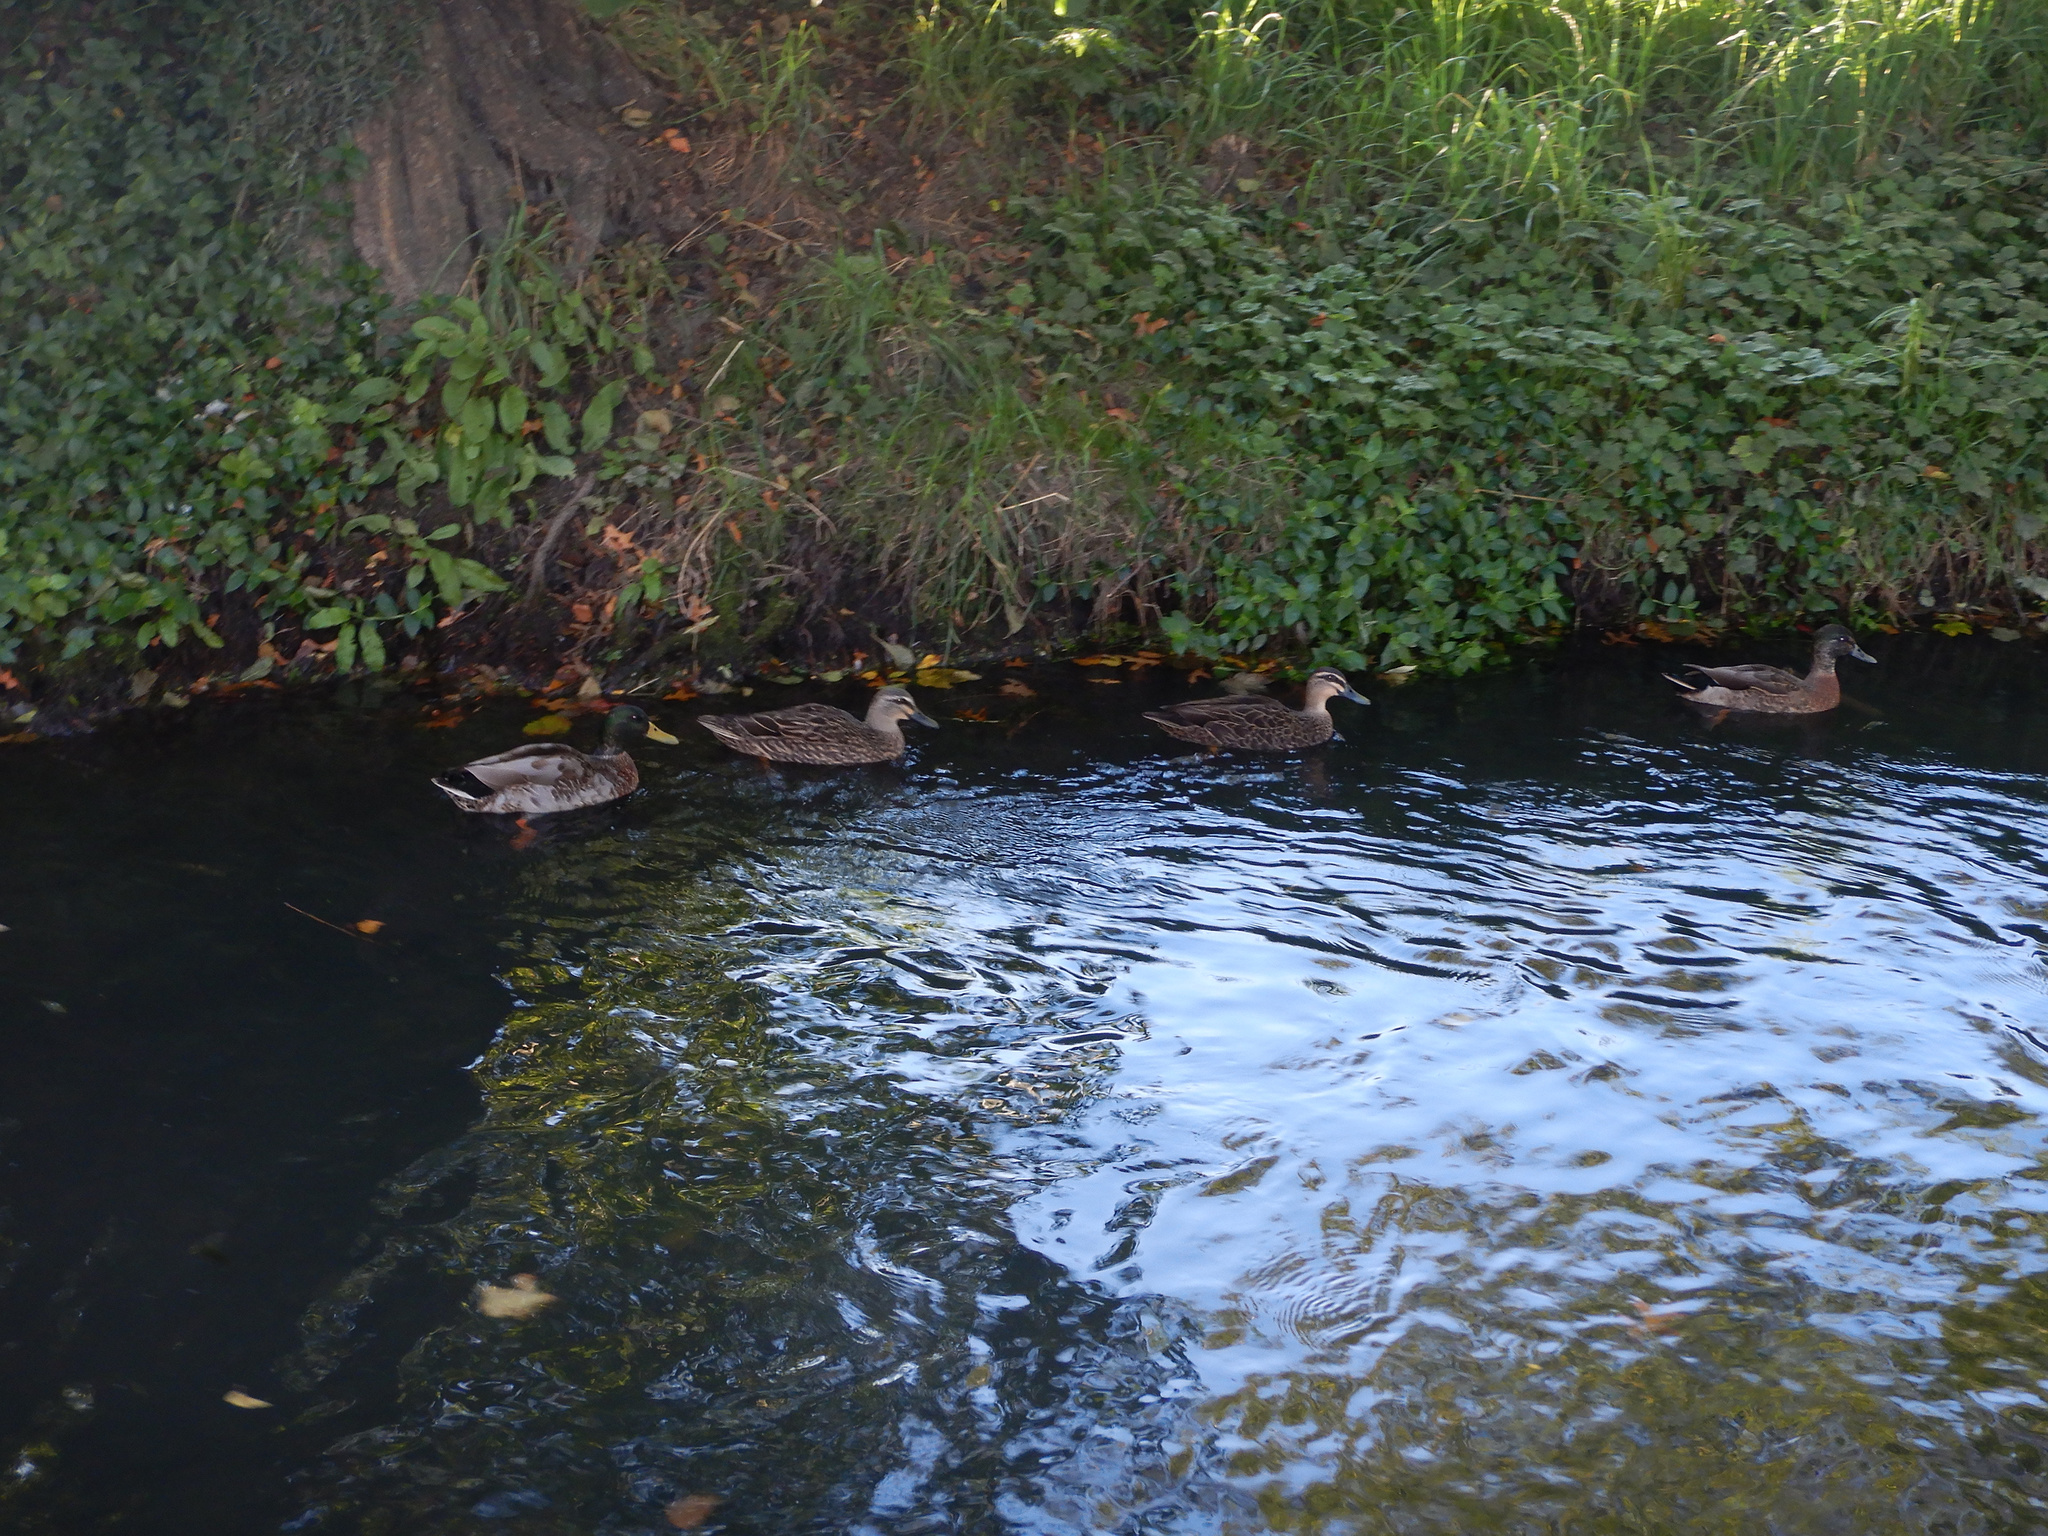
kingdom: Animalia
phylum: Chordata
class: Aves
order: Anseriformes
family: Anatidae
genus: Anas
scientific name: Anas
